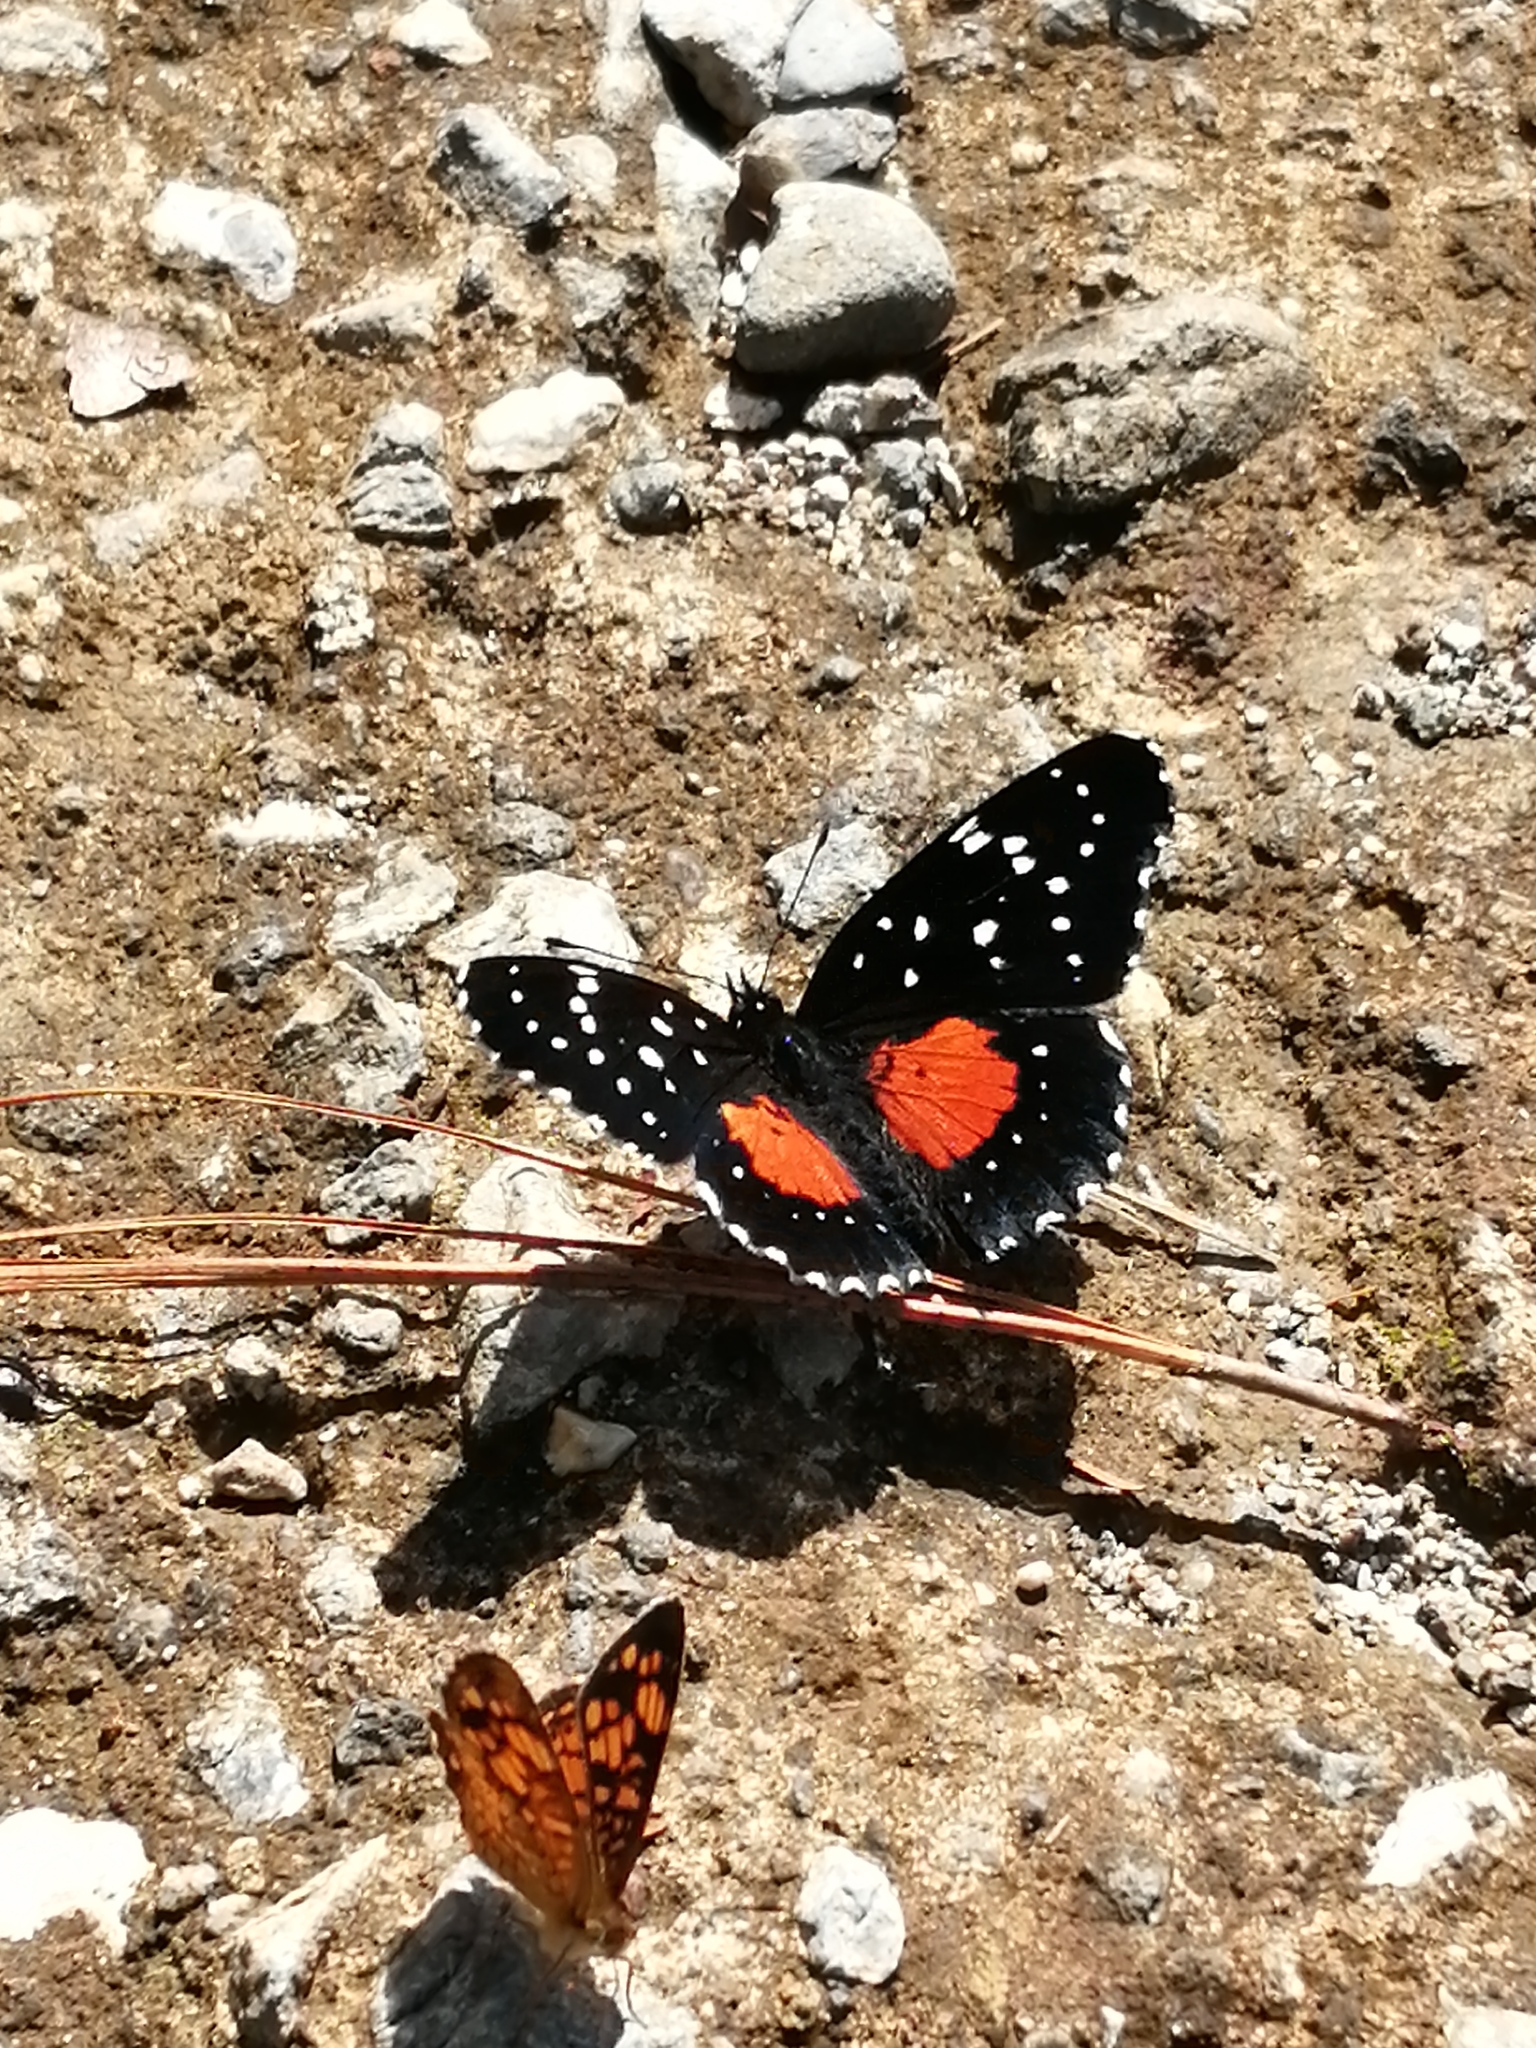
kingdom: Animalia
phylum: Arthropoda
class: Insecta
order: Lepidoptera
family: Nymphalidae
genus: Chlosyne
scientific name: Chlosyne janais
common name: Crimson patch
